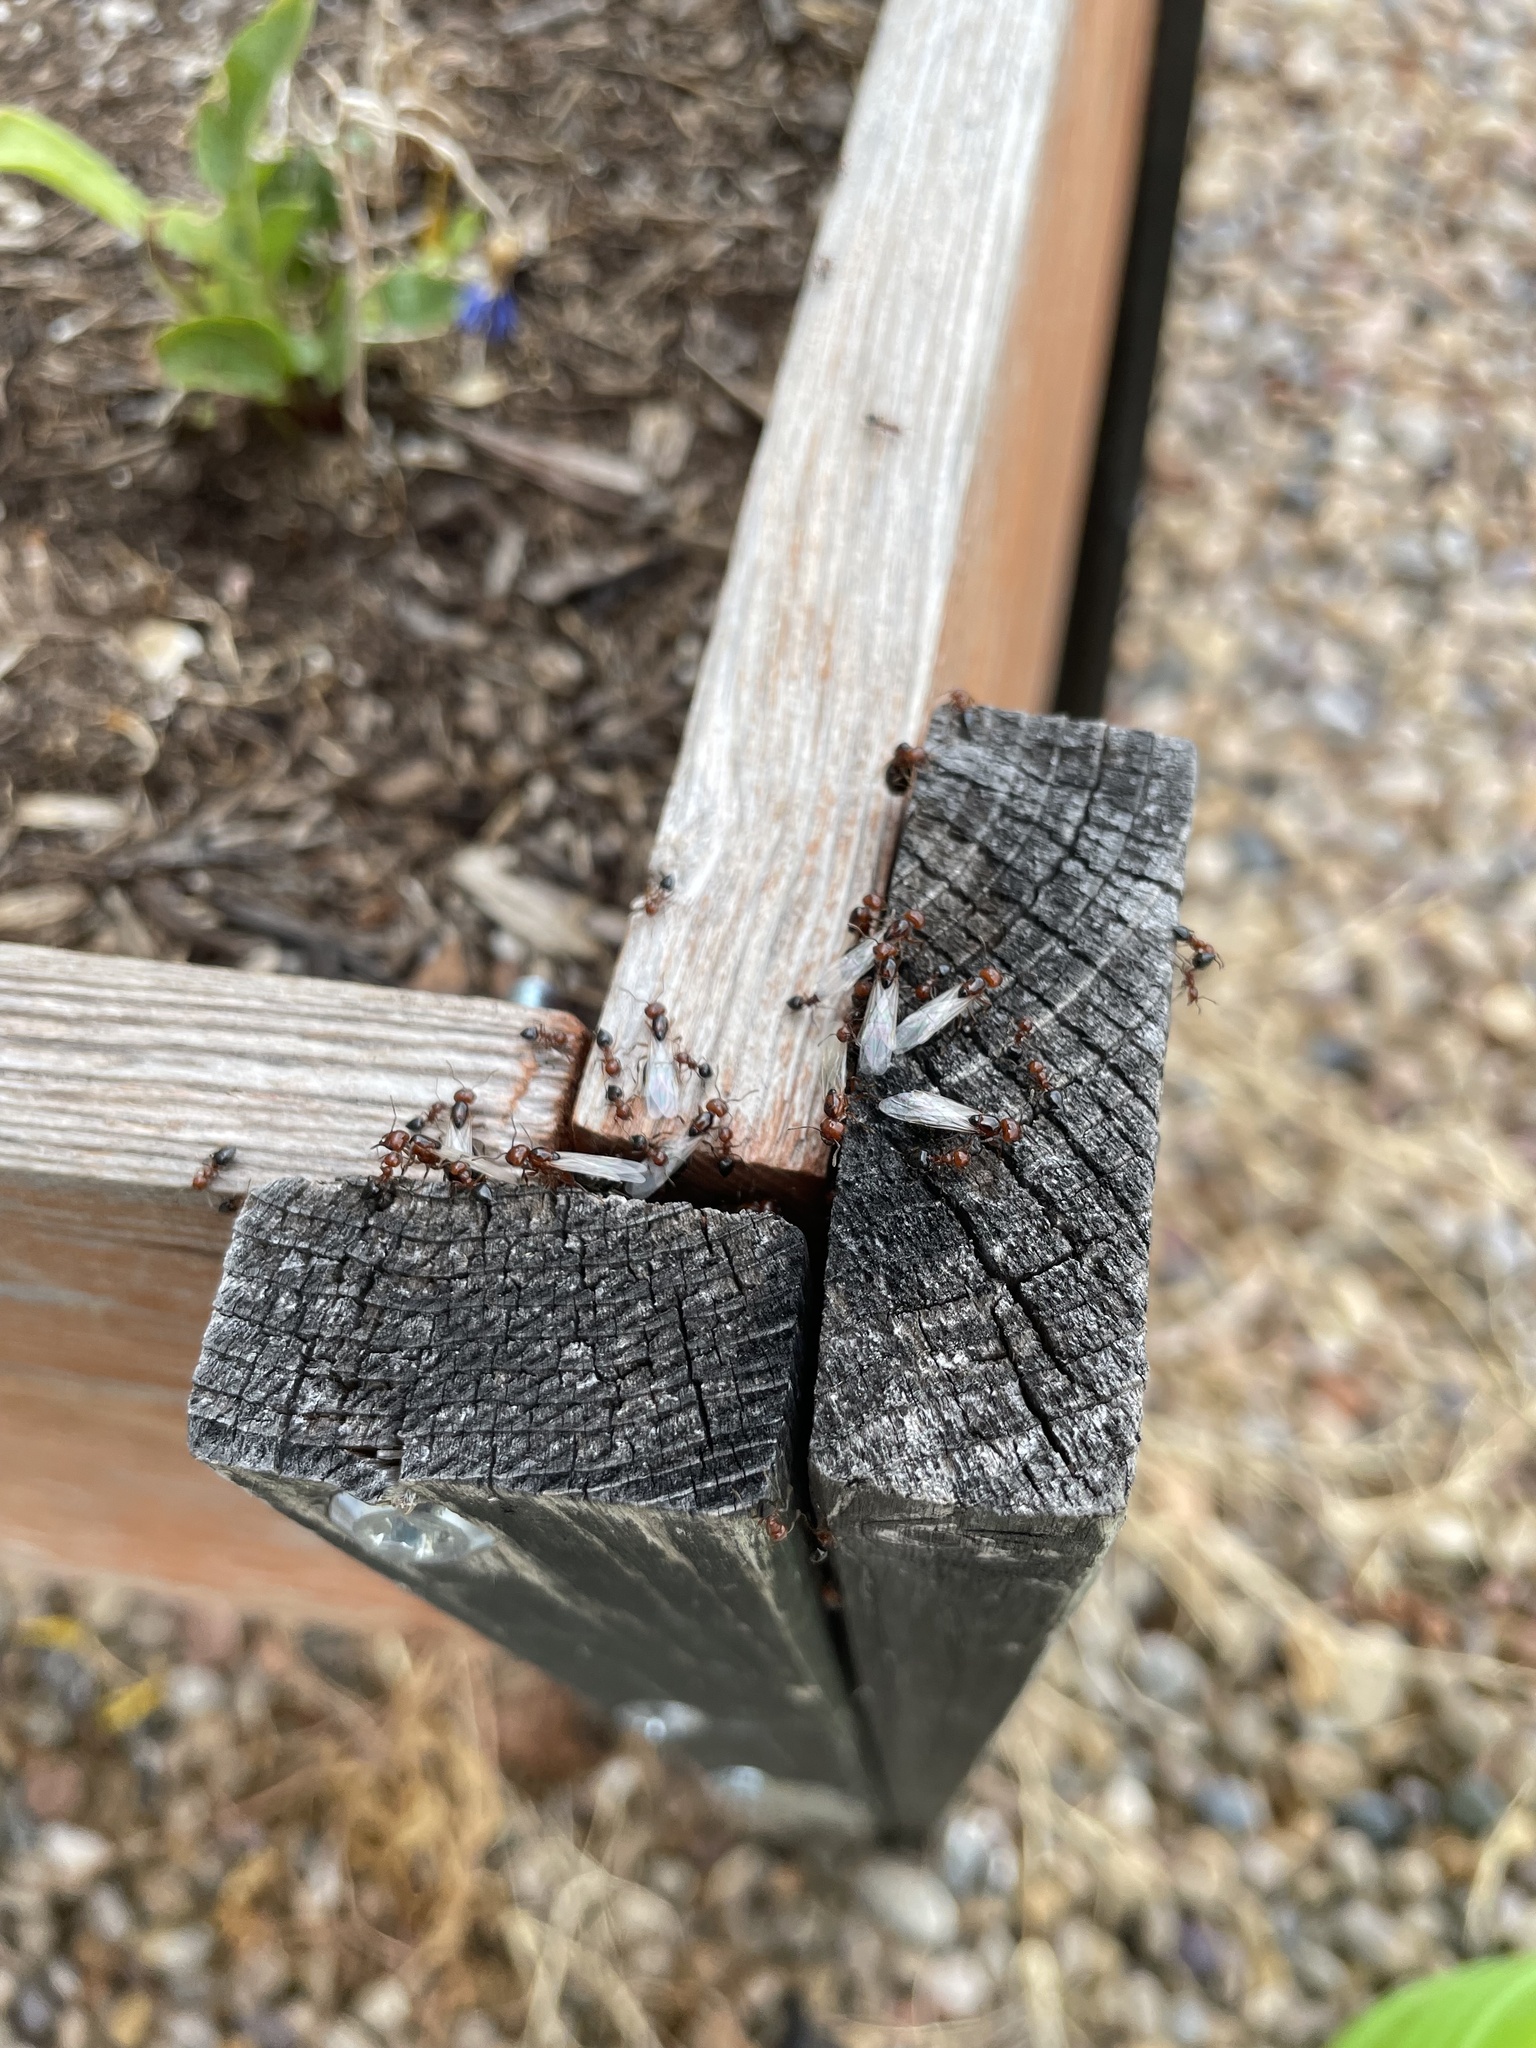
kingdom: Animalia
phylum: Arthropoda
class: Insecta
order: Hymenoptera
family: Formicidae
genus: Crematogaster
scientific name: Crematogaster laeviuscula
